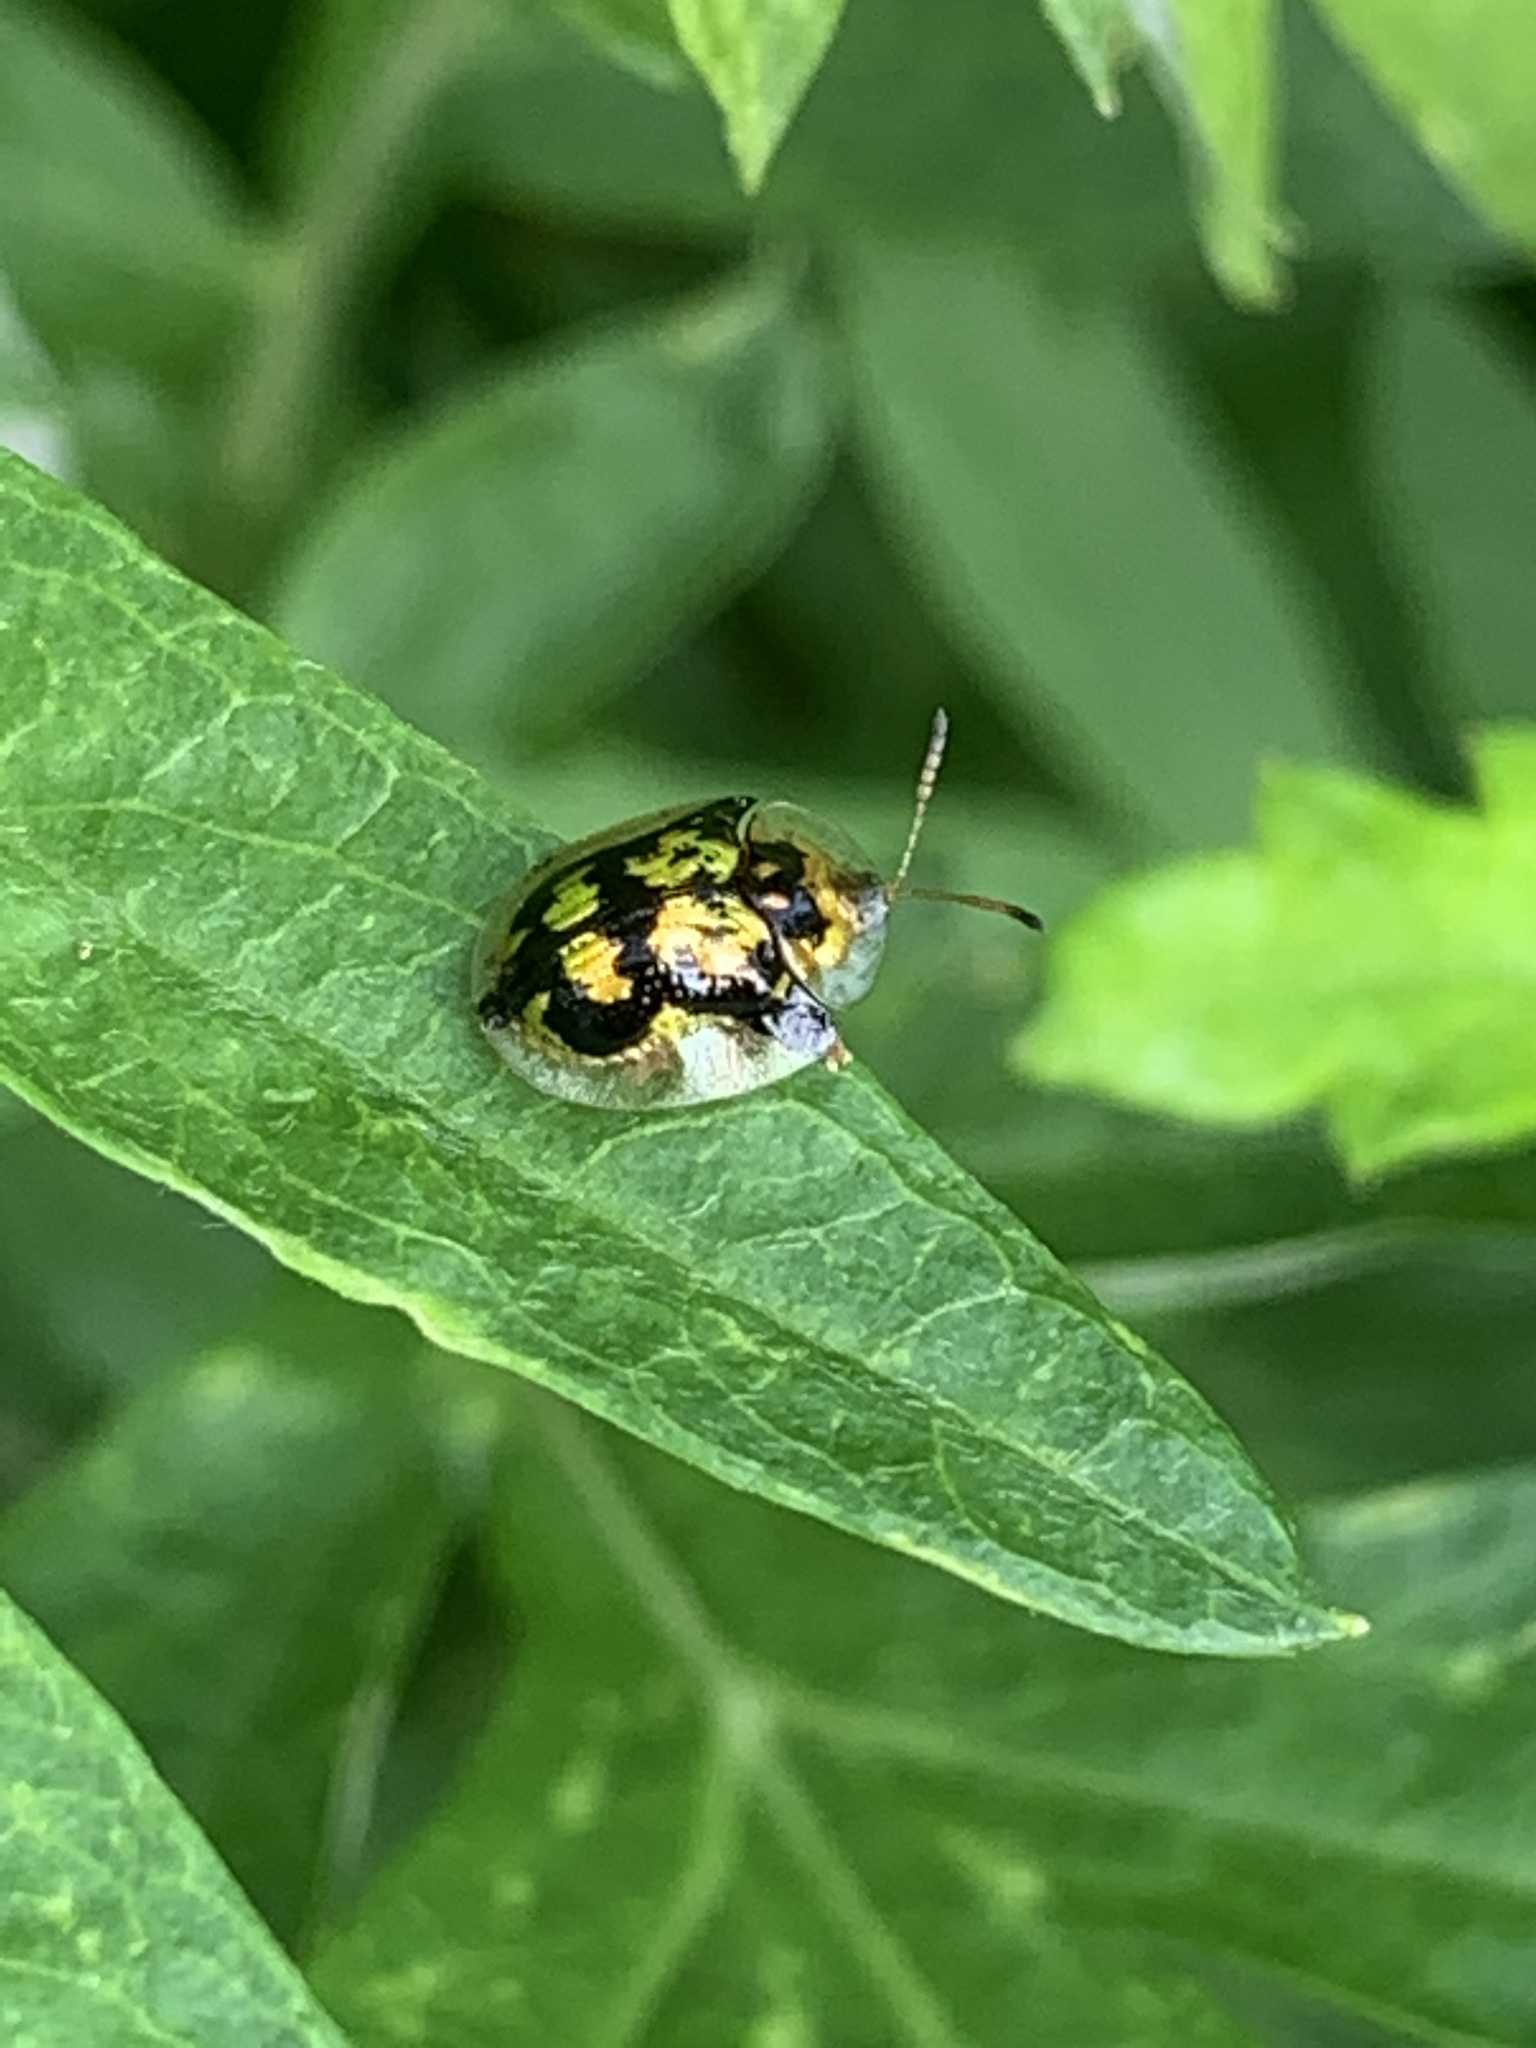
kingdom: Animalia
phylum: Arthropoda
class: Insecta
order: Coleoptera
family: Chrysomelidae
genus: Deloyala
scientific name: Deloyala guttata
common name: Mottled tortoise beetle
